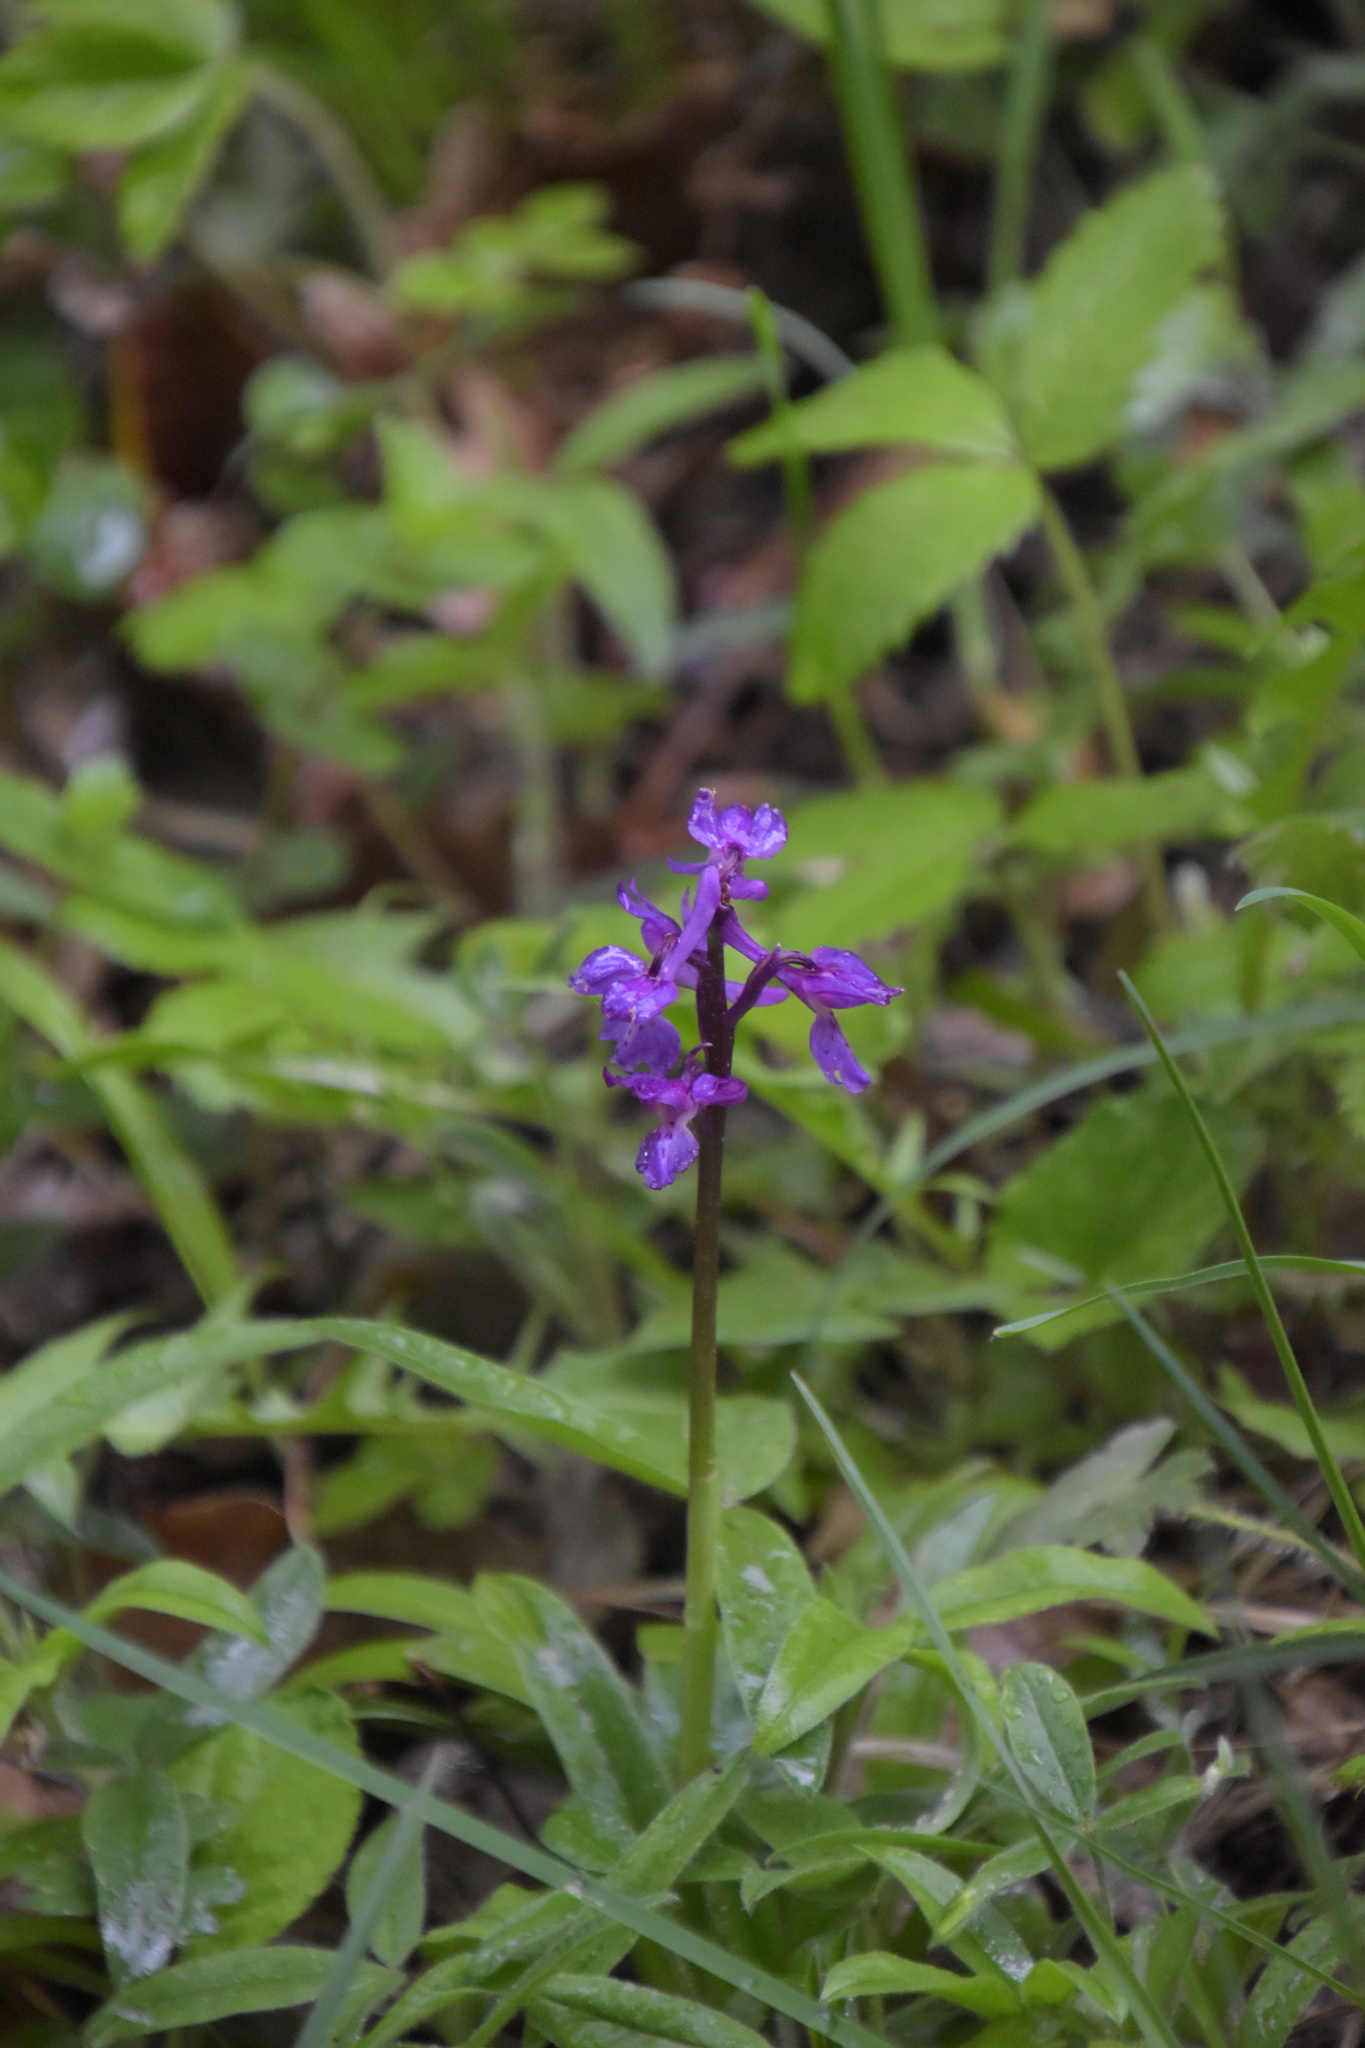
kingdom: Plantae
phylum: Tracheophyta
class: Liliopsida
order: Asparagales
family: Orchidaceae
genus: Orchis
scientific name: Orchis mascula
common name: Early-purple orchid
